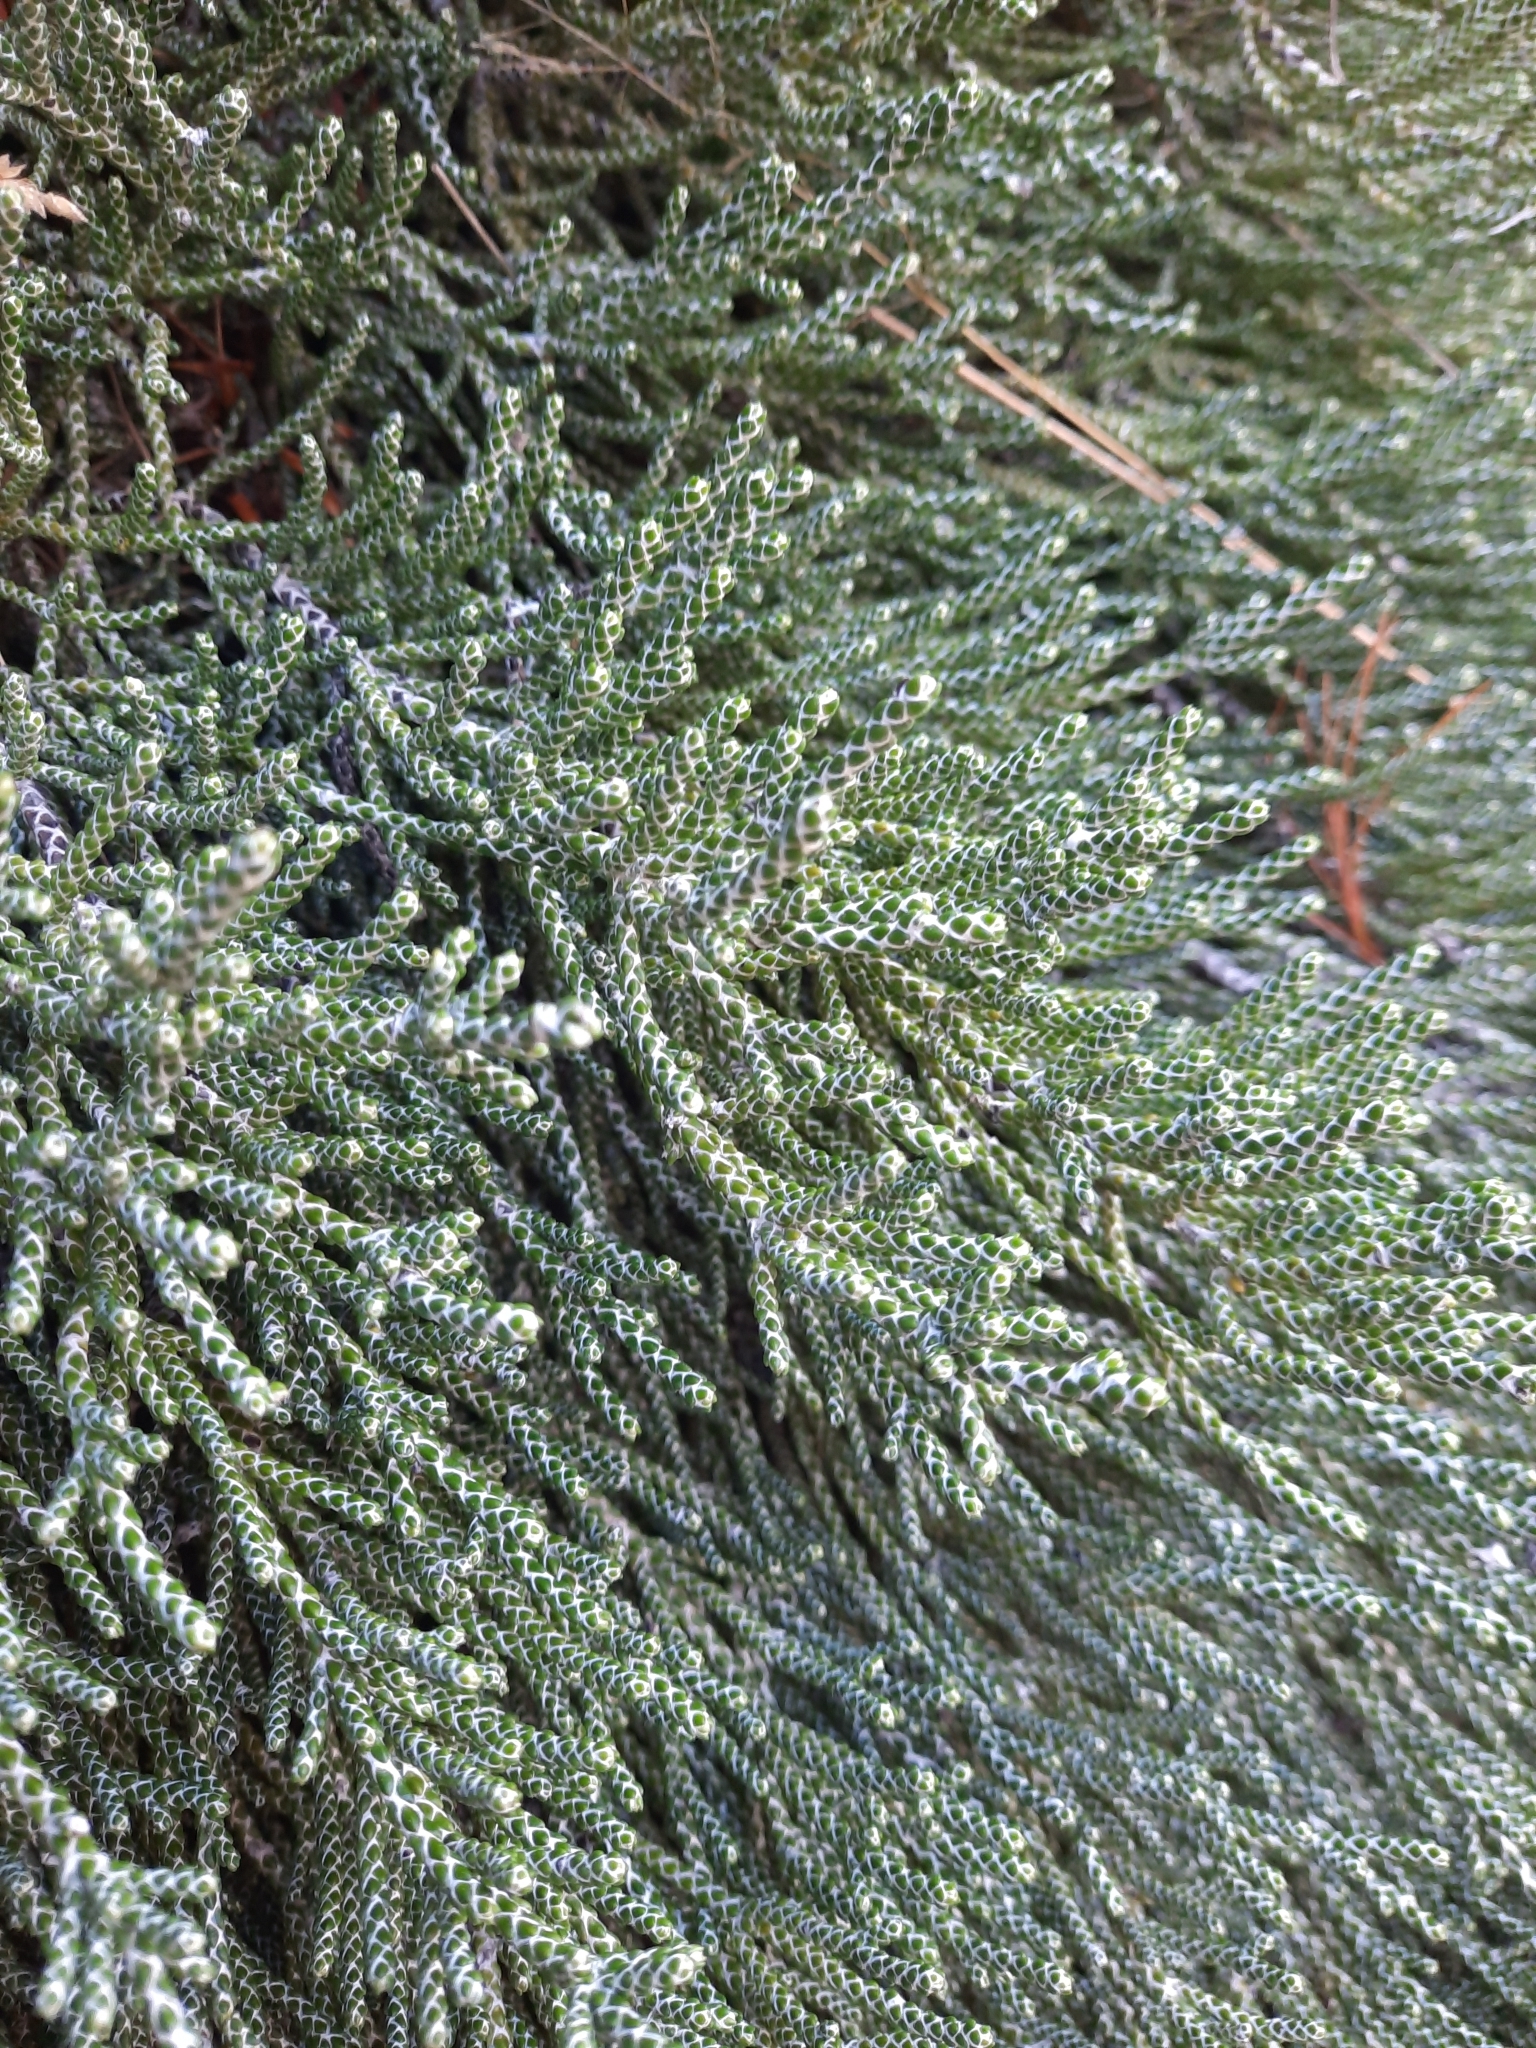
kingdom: Plantae
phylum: Tracheophyta
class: Magnoliopsida
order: Asterales
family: Asteraceae
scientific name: Asteraceae
